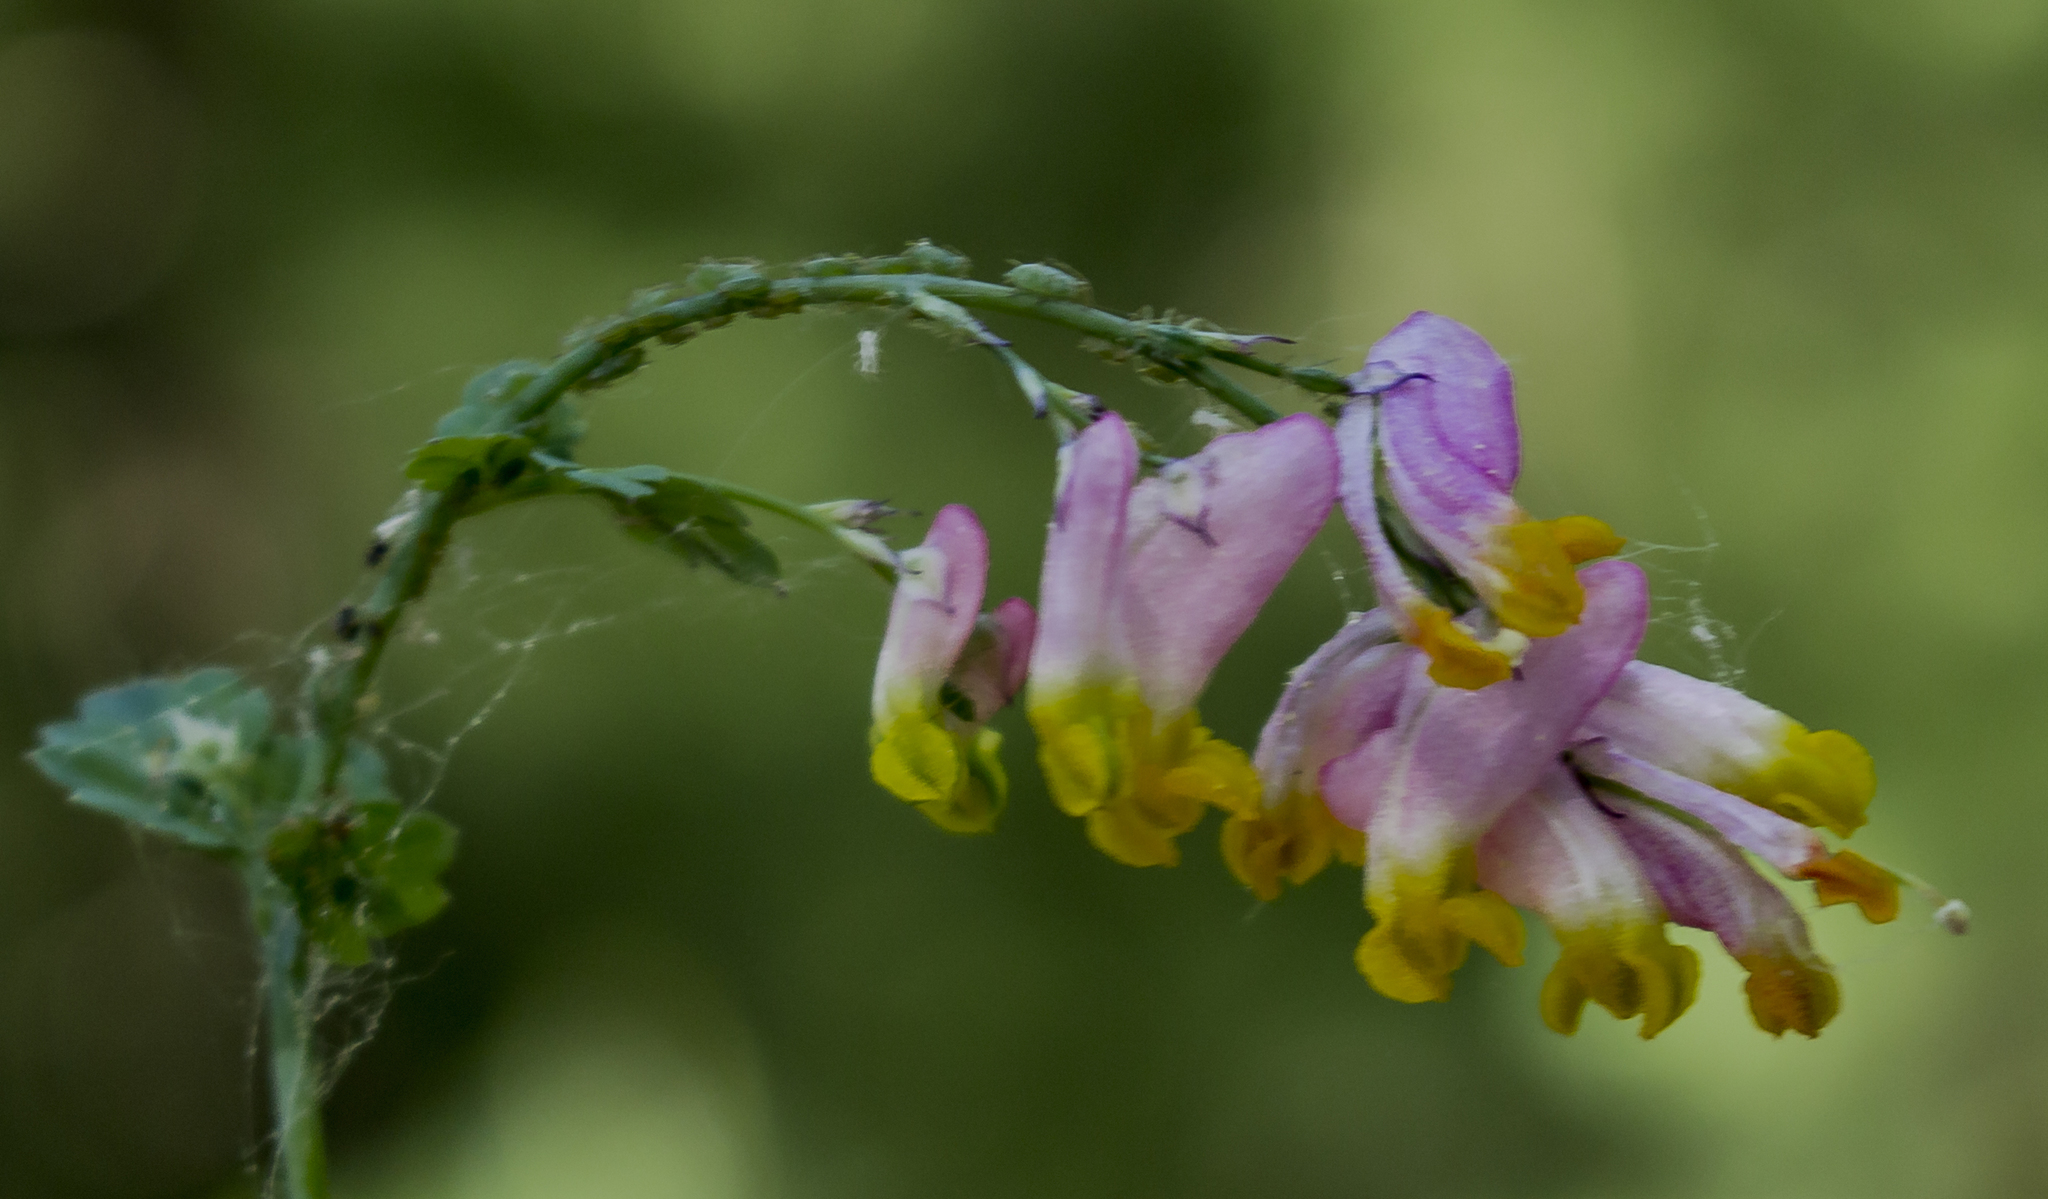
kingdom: Plantae
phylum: Tracheophyta
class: Magnoliopsida
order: Ranunculales
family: Papaveraceae
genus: Capnoides
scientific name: Capnoides sempervirens
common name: Rock harlequin
